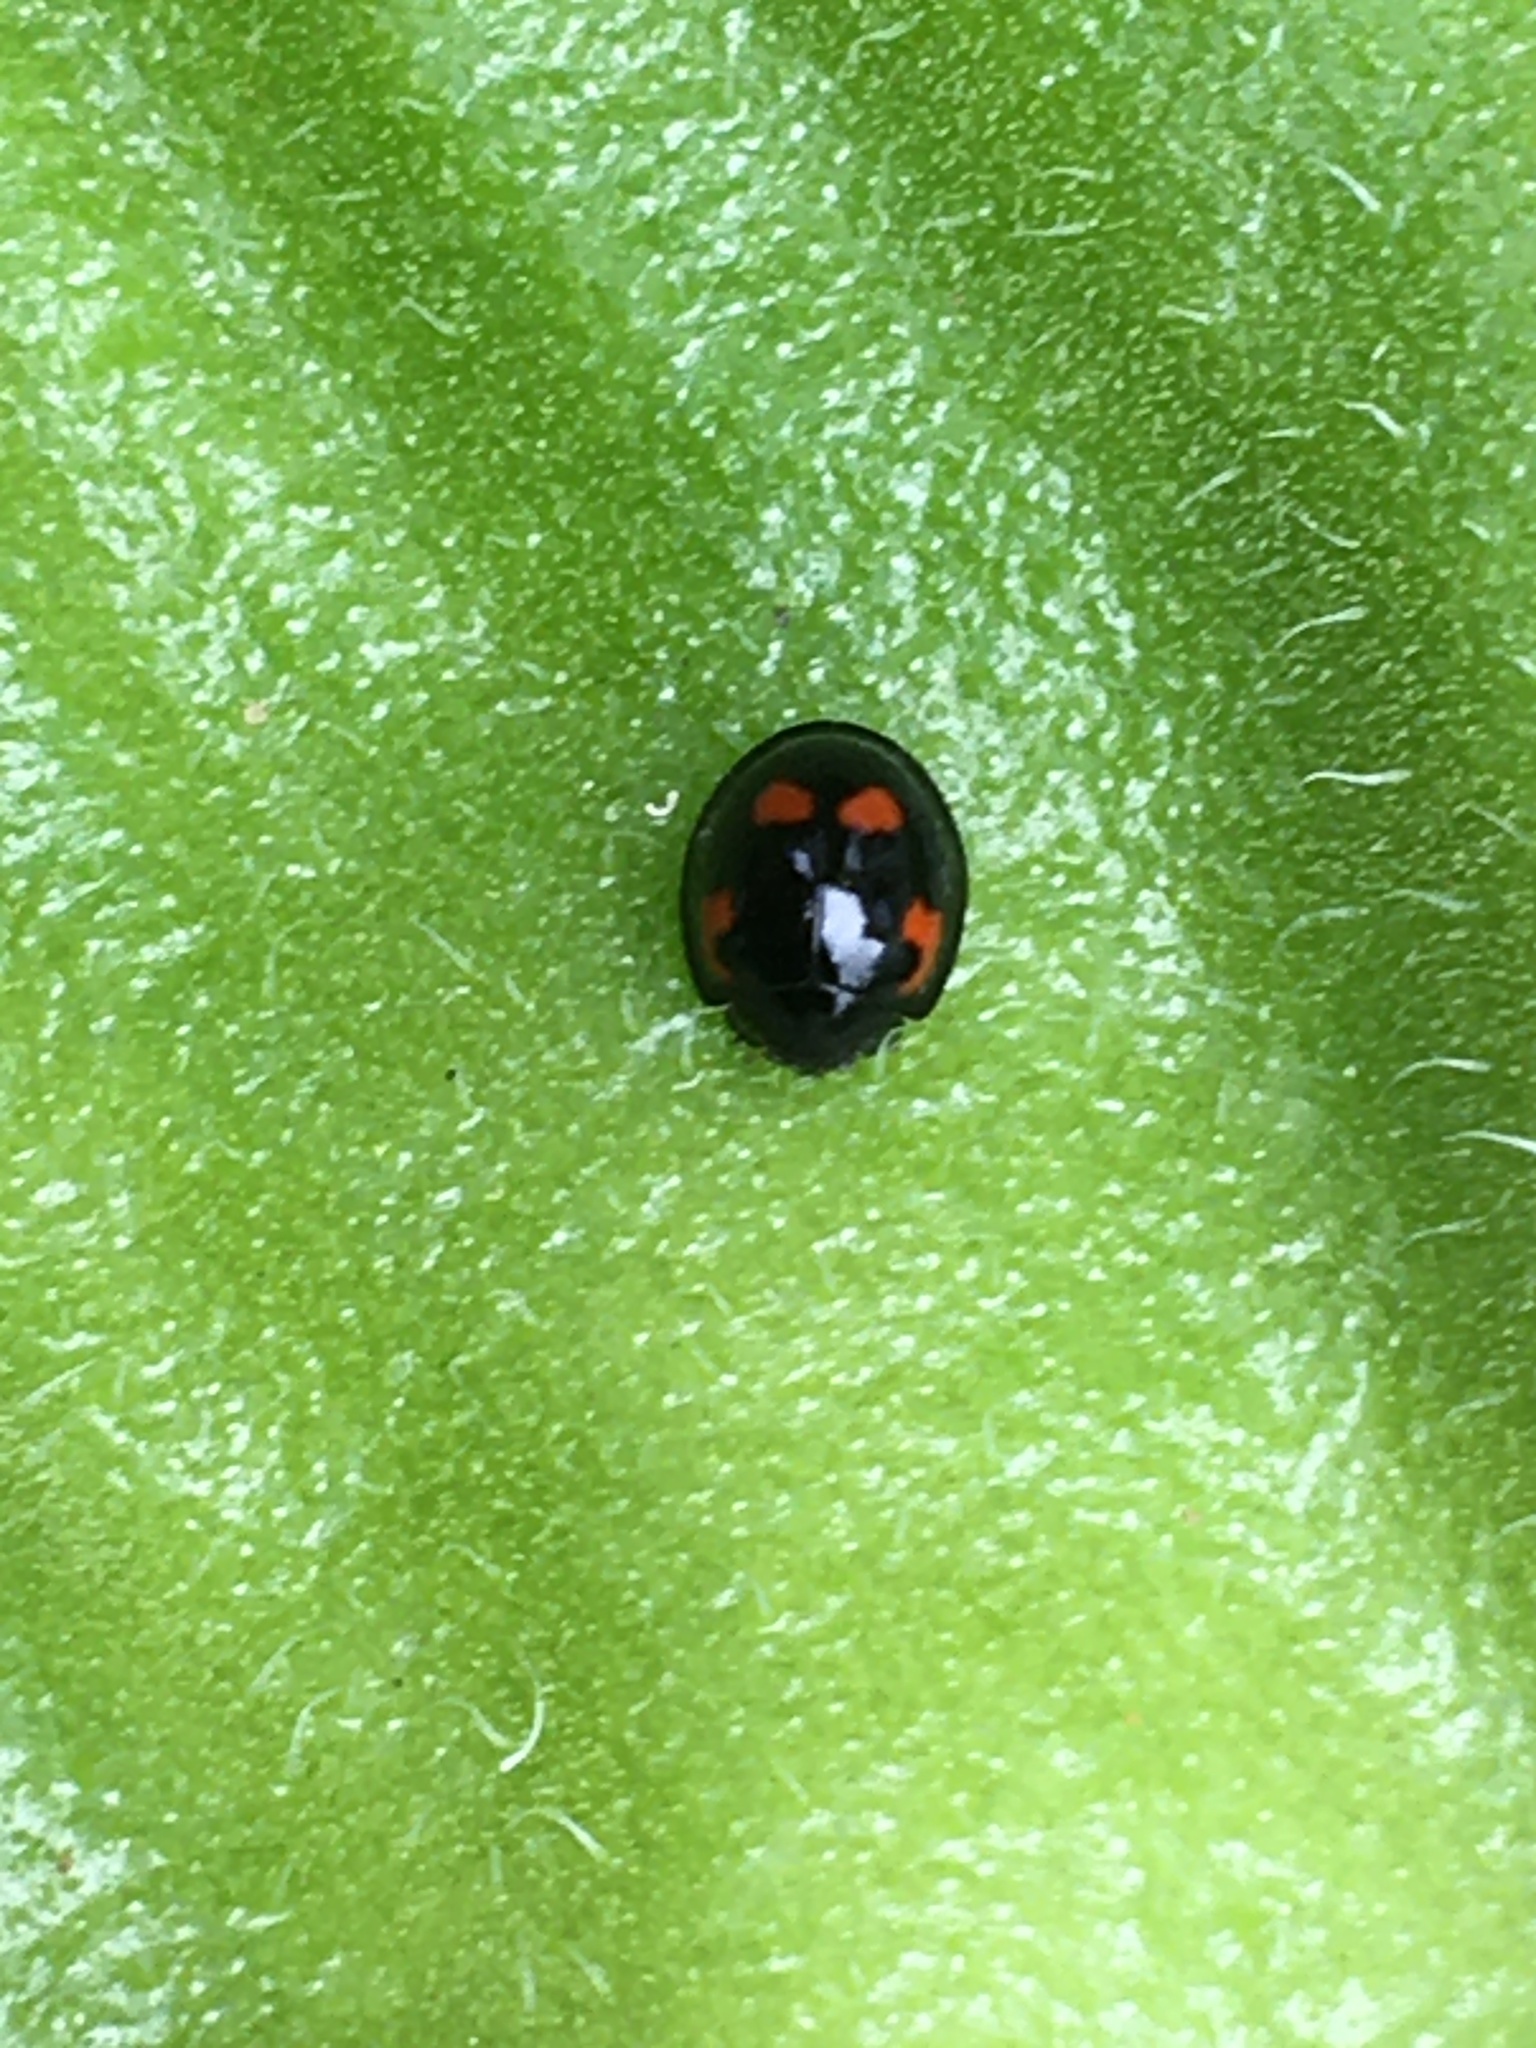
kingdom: Animalia
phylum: Arthropoda
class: Insecta
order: Coleoptera
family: Coccinellidae
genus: Brumus
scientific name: Brumus quadripustulatus
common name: Ladybird beetle
